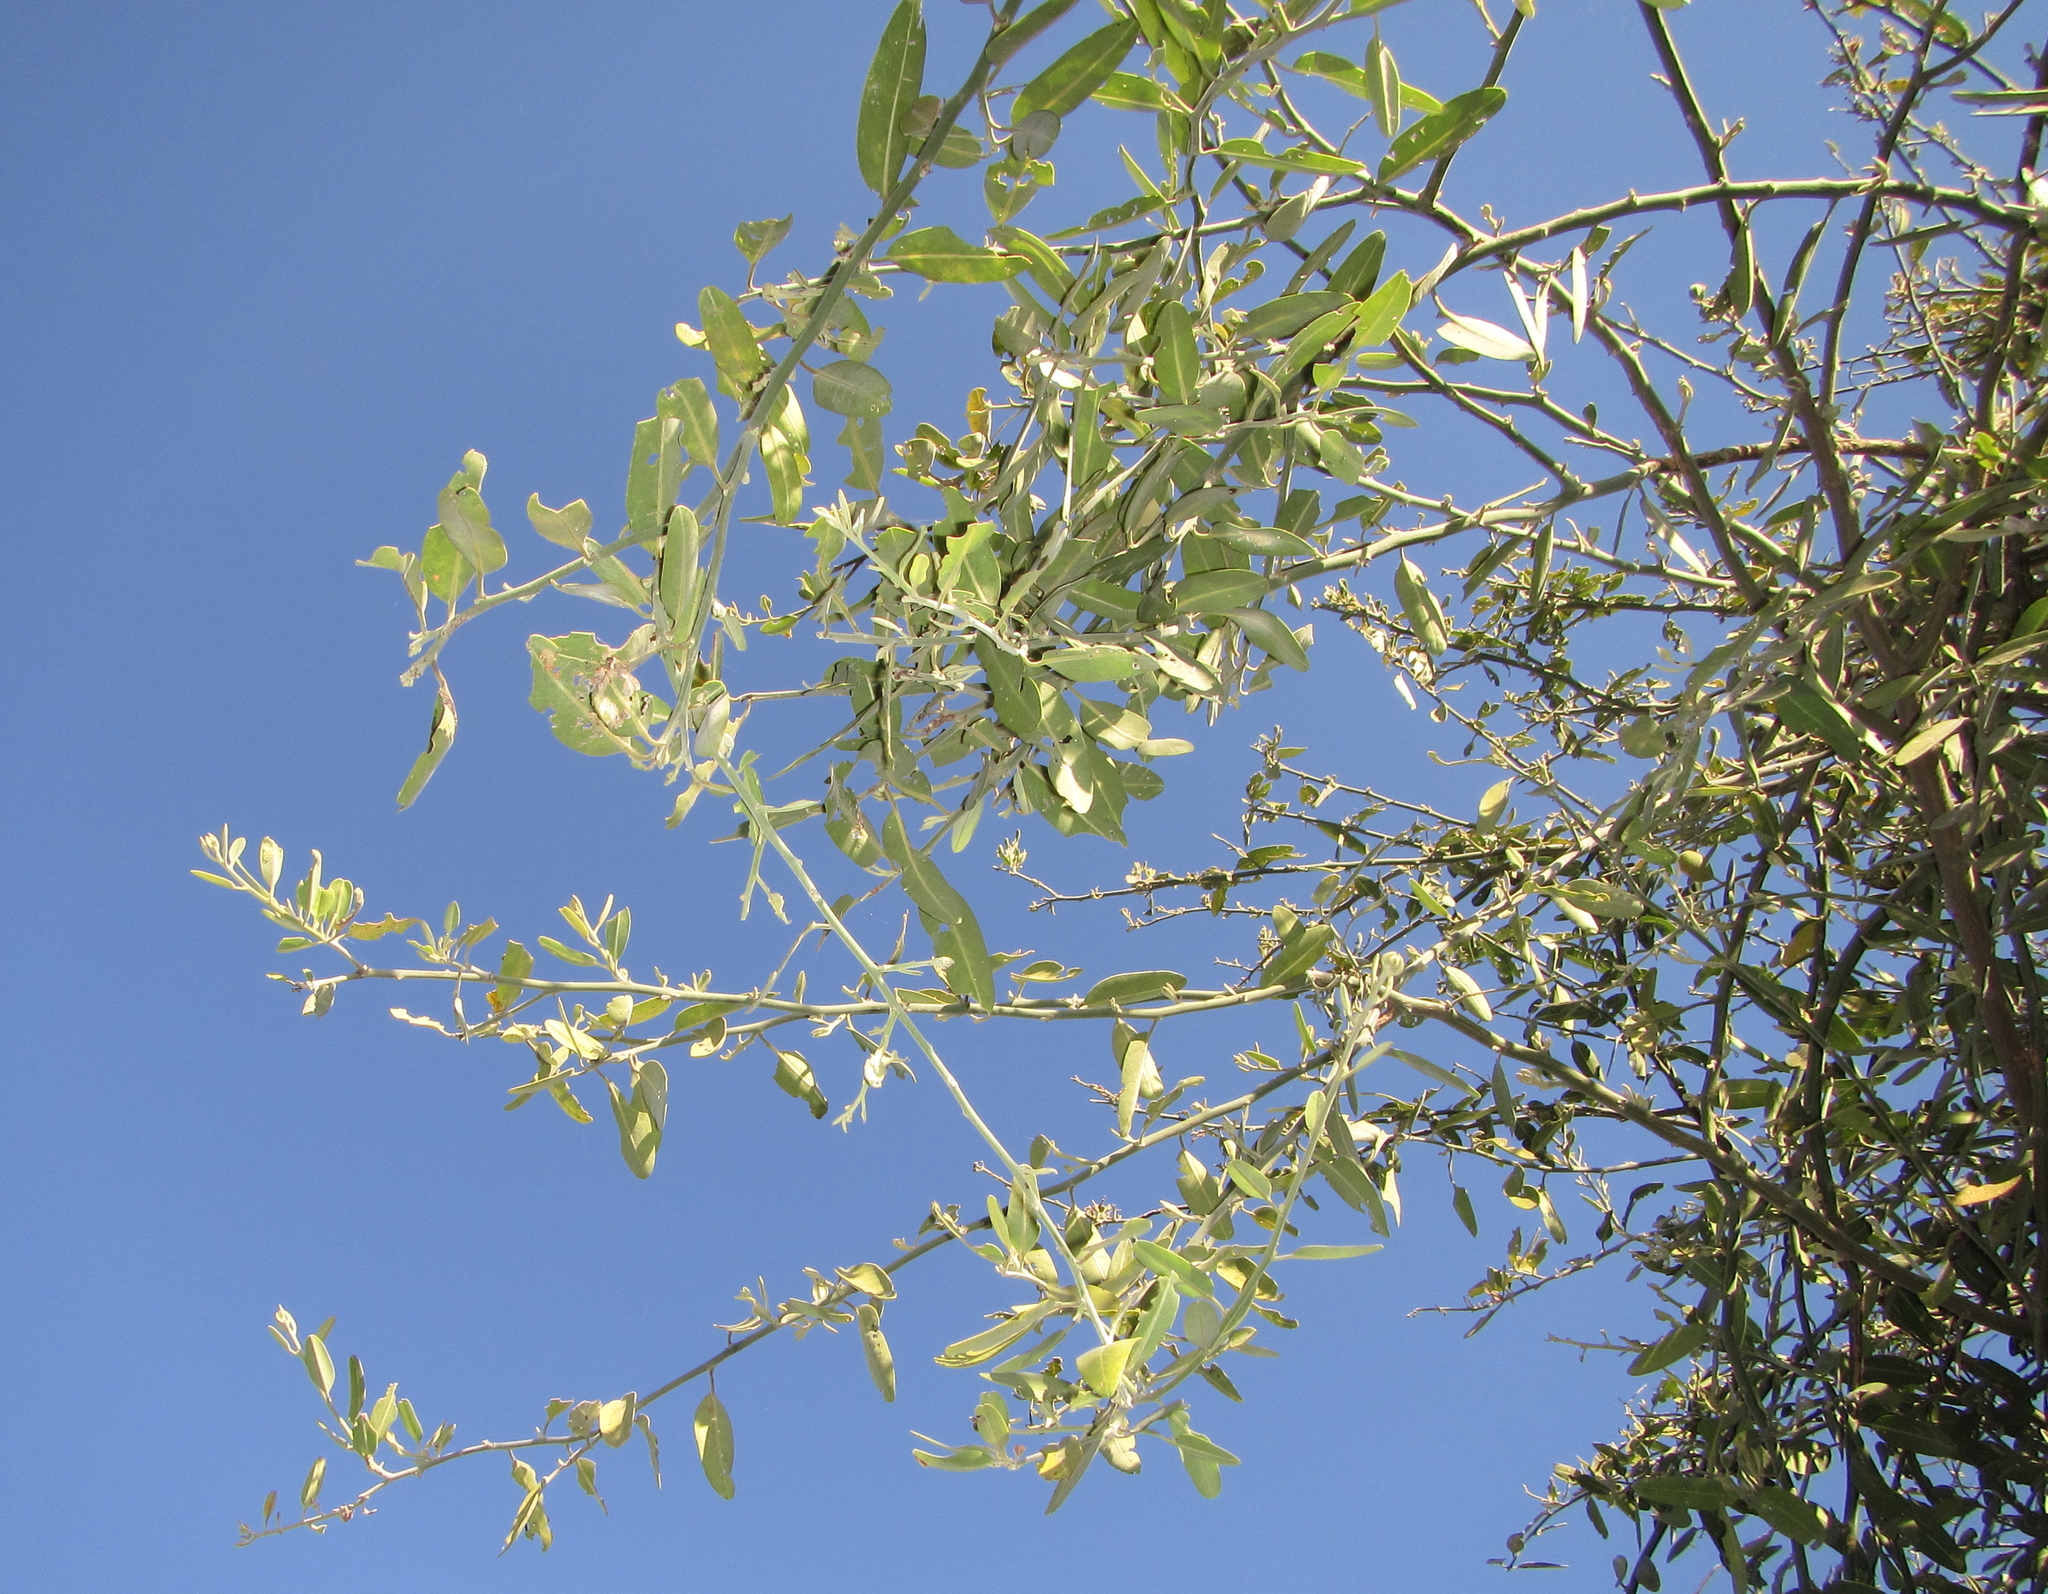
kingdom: Plantae
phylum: Tracheophyta
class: Magnoliopsida
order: Brassicales
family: Capparaceae
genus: Capparis
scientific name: Capparis tomentosa
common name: African caper
